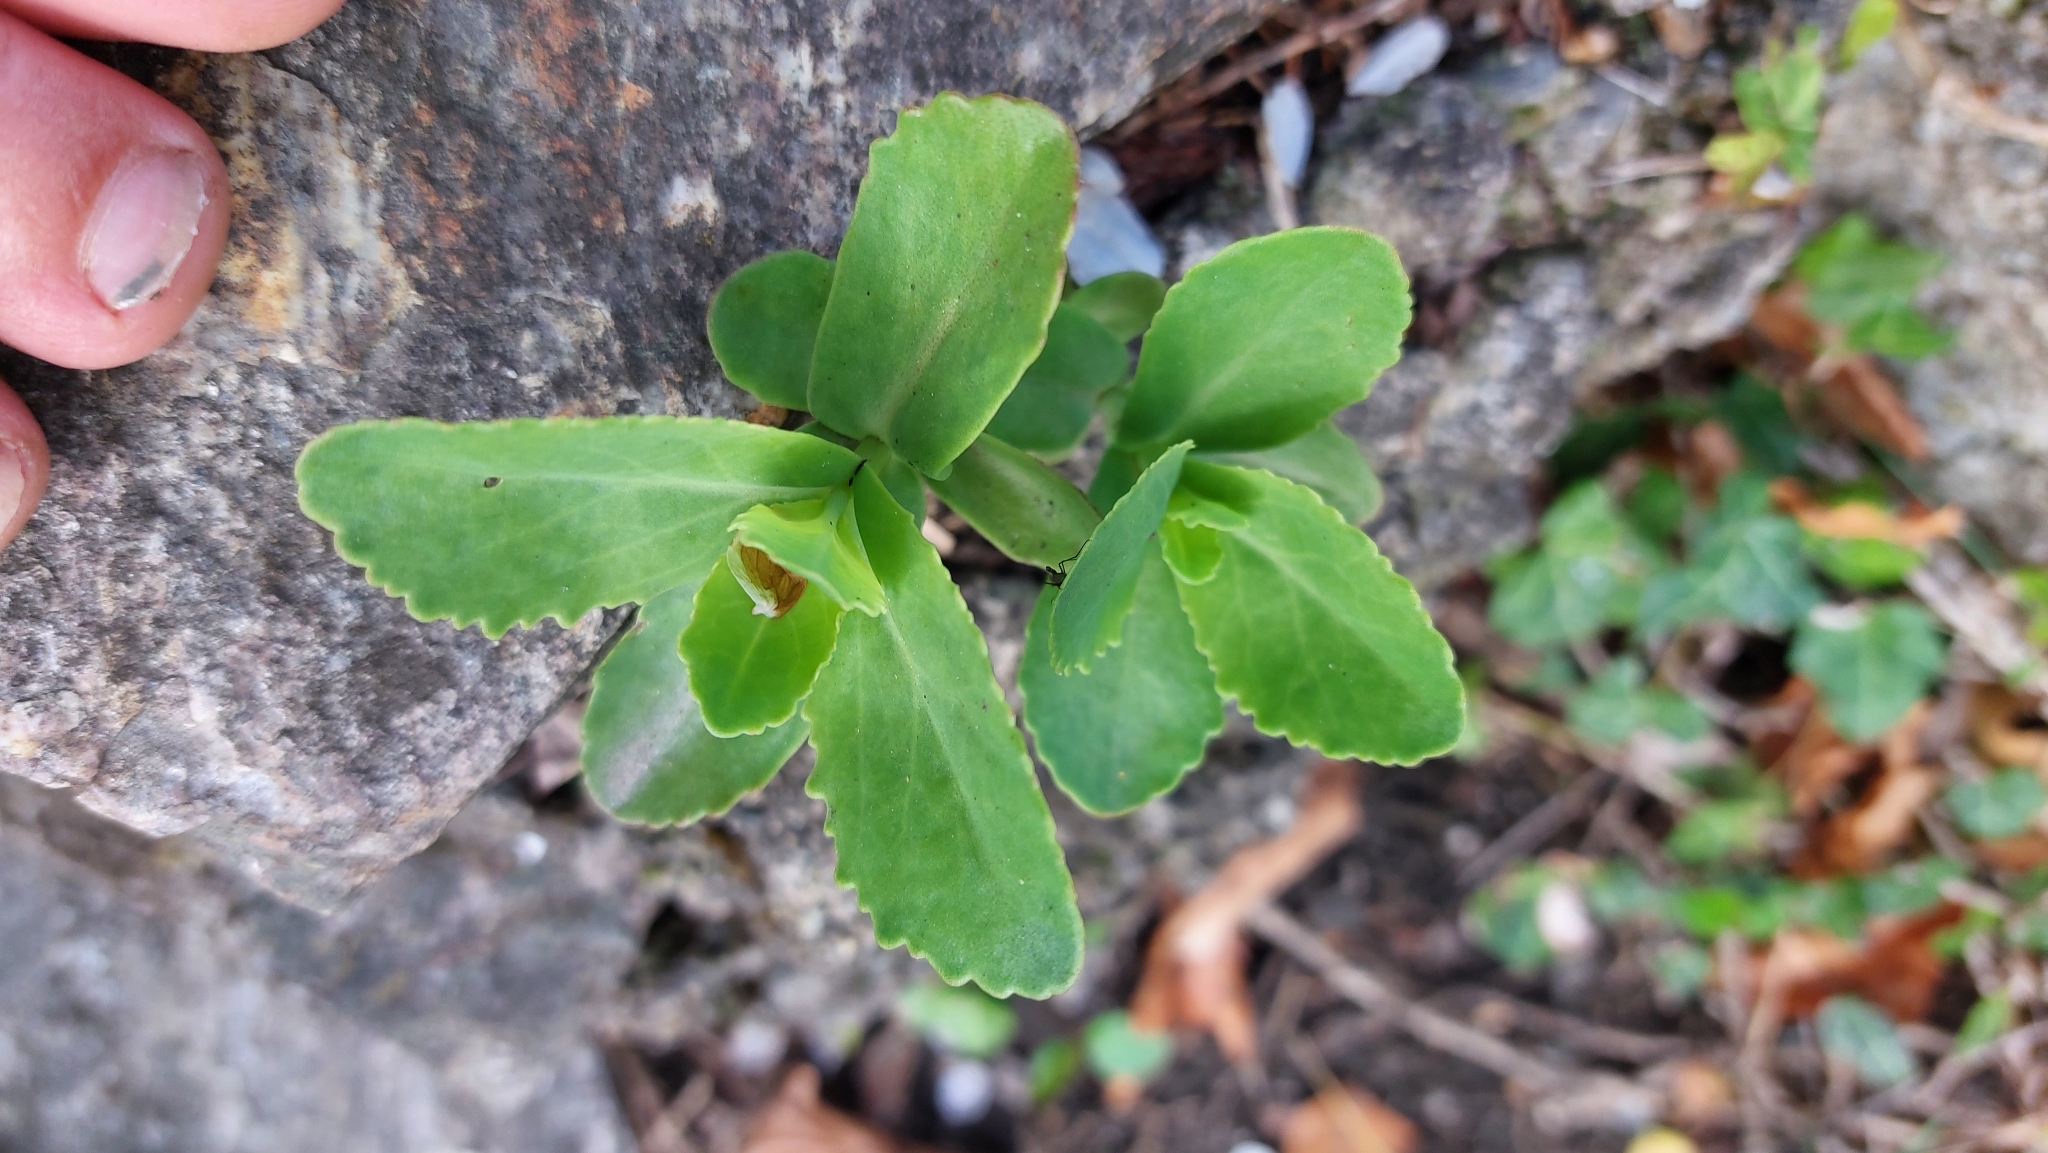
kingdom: Plantae
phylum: Tracheophyta
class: Magnoliopsida
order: Saxifragales
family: Crassulaceae
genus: Hylotelephium
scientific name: Hylotelephium maximum
